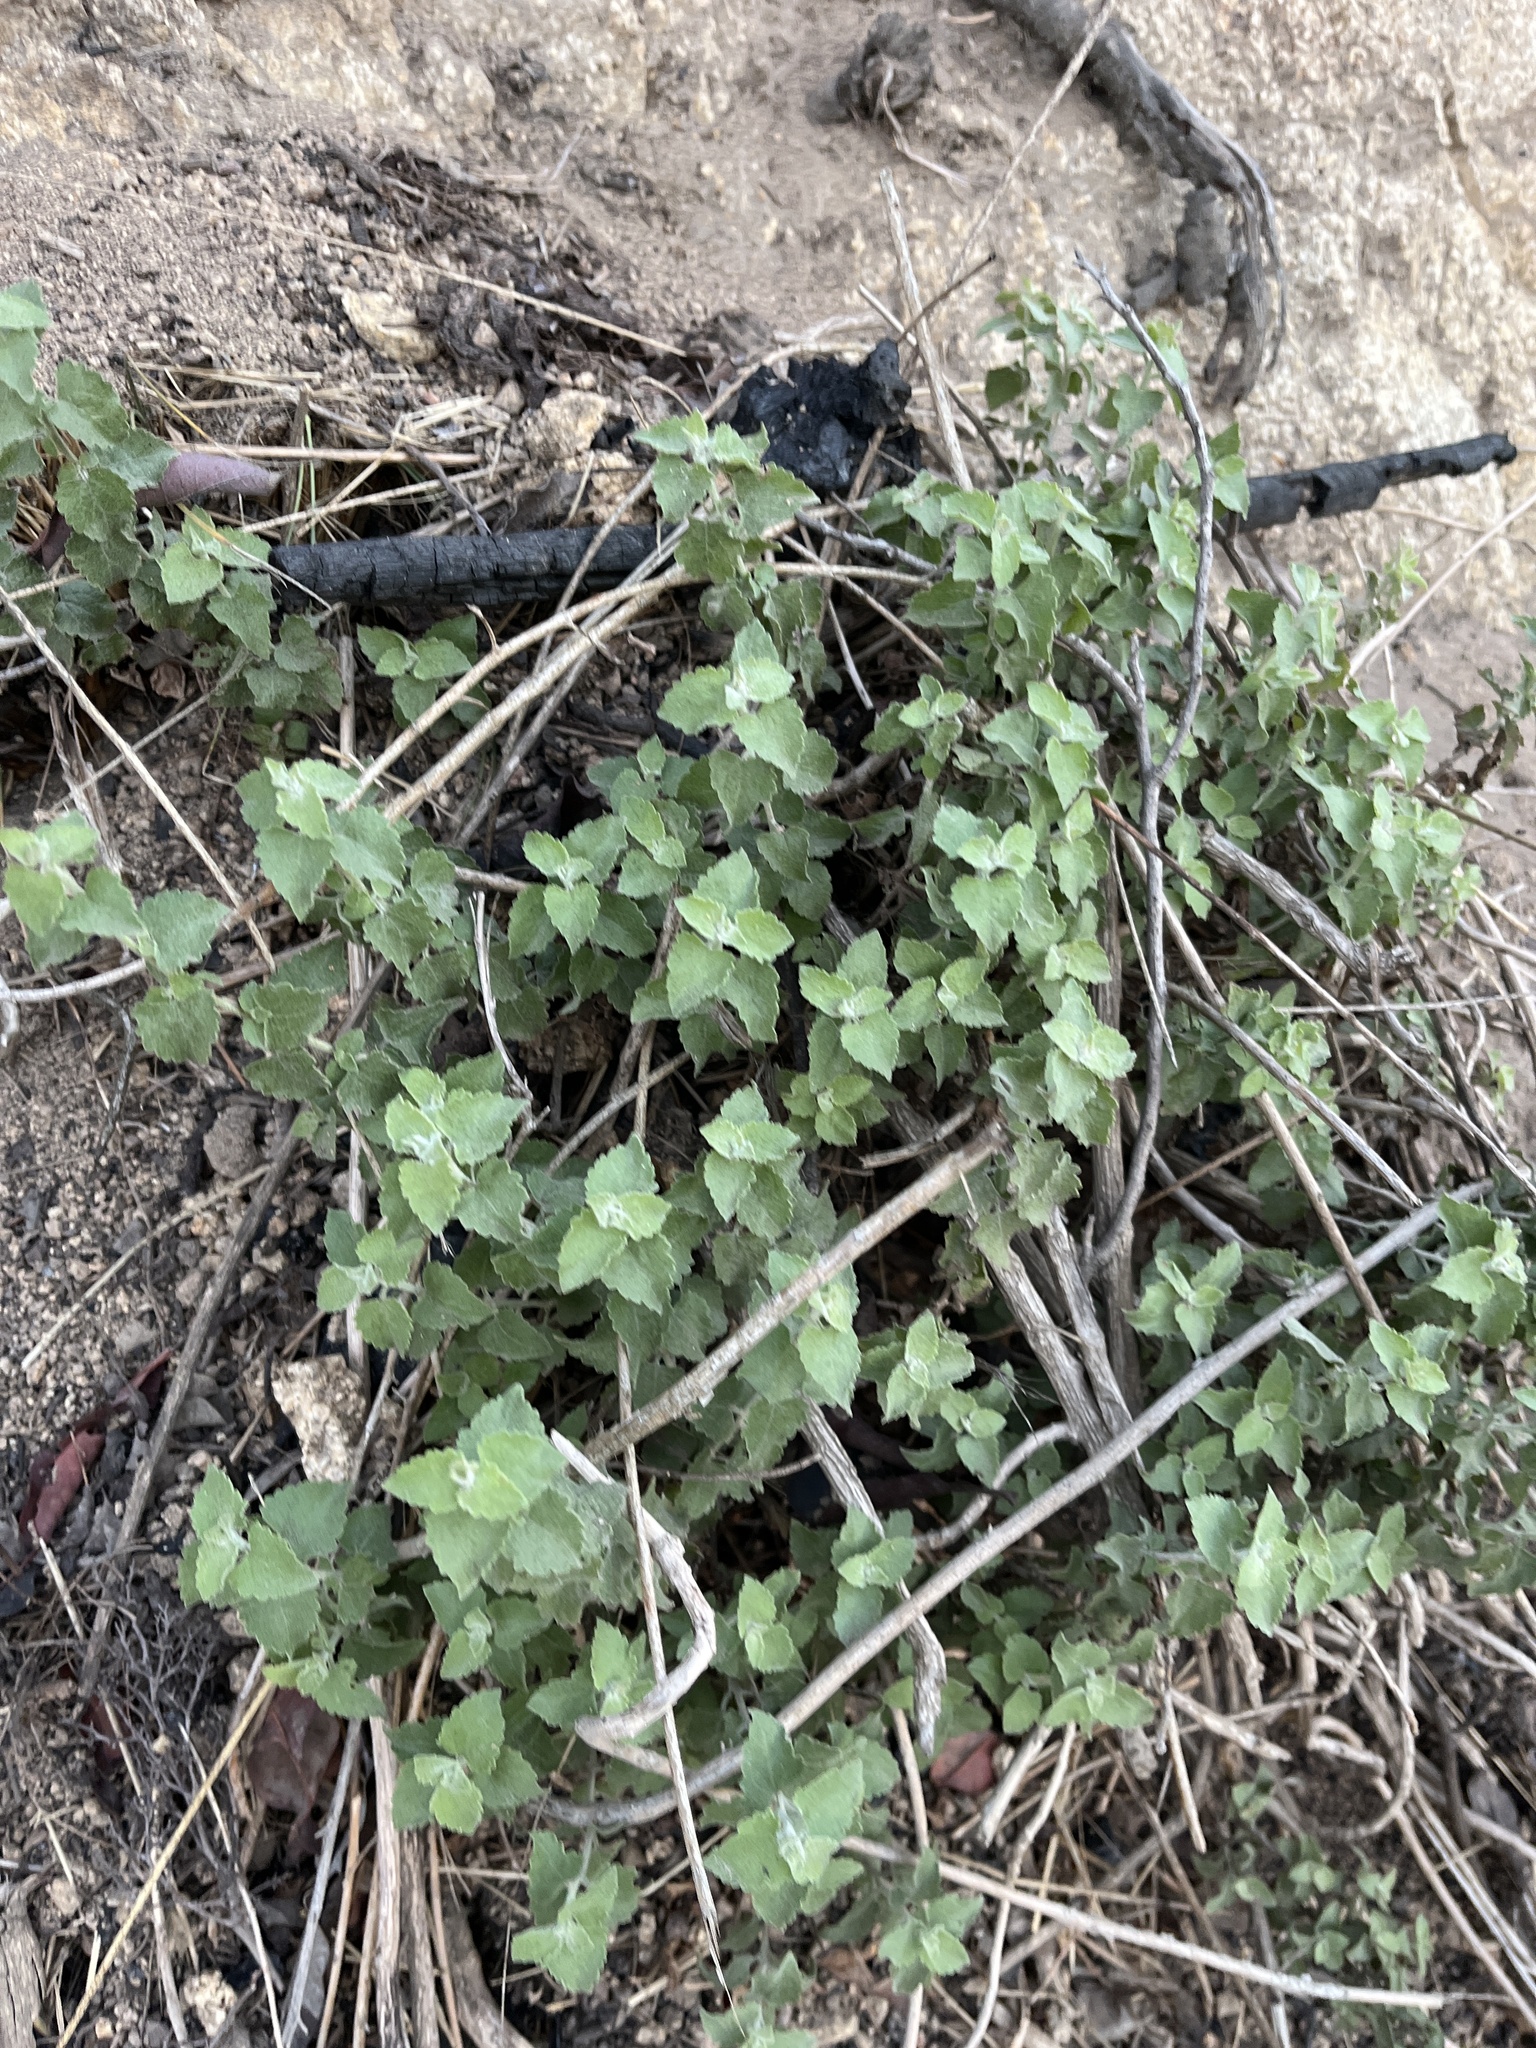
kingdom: Plantae
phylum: Tracheophyta
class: Magnoliopsida
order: Asterales
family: Asteraceae
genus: Brickellia
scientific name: Brickellia californica
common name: California brickellbush
